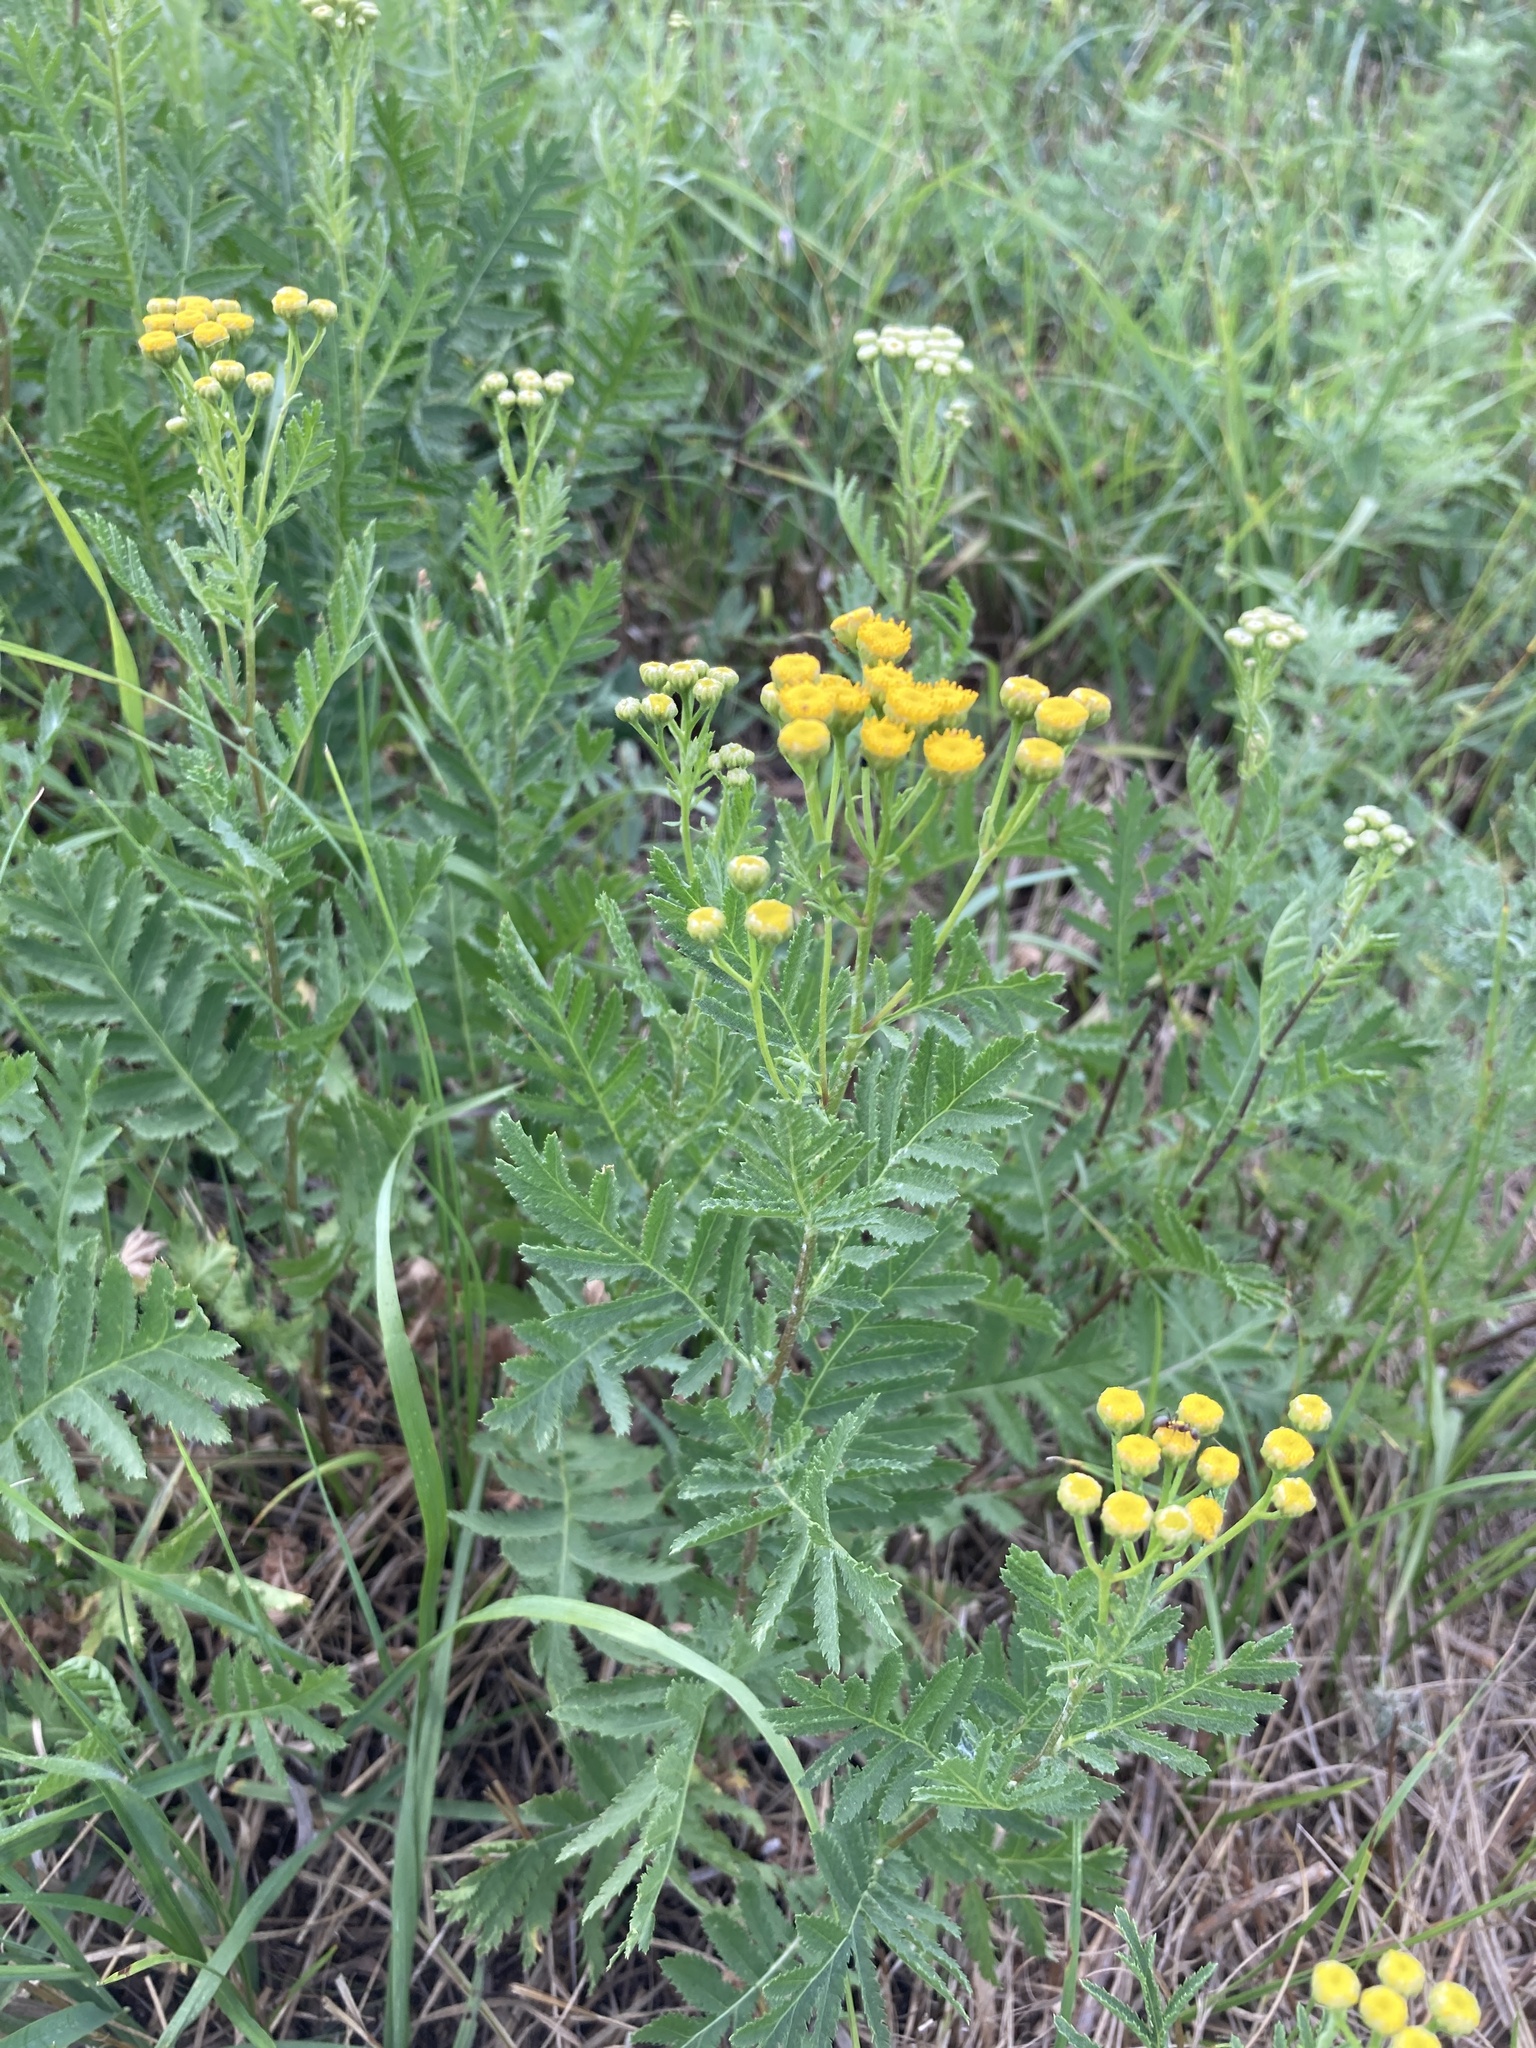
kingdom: Plantae
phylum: Tracheophyta
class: Magnoliopsida
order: Asterales
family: Asteraceae
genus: Tanacetum
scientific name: Tanacetum vulgare
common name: Common tansy
